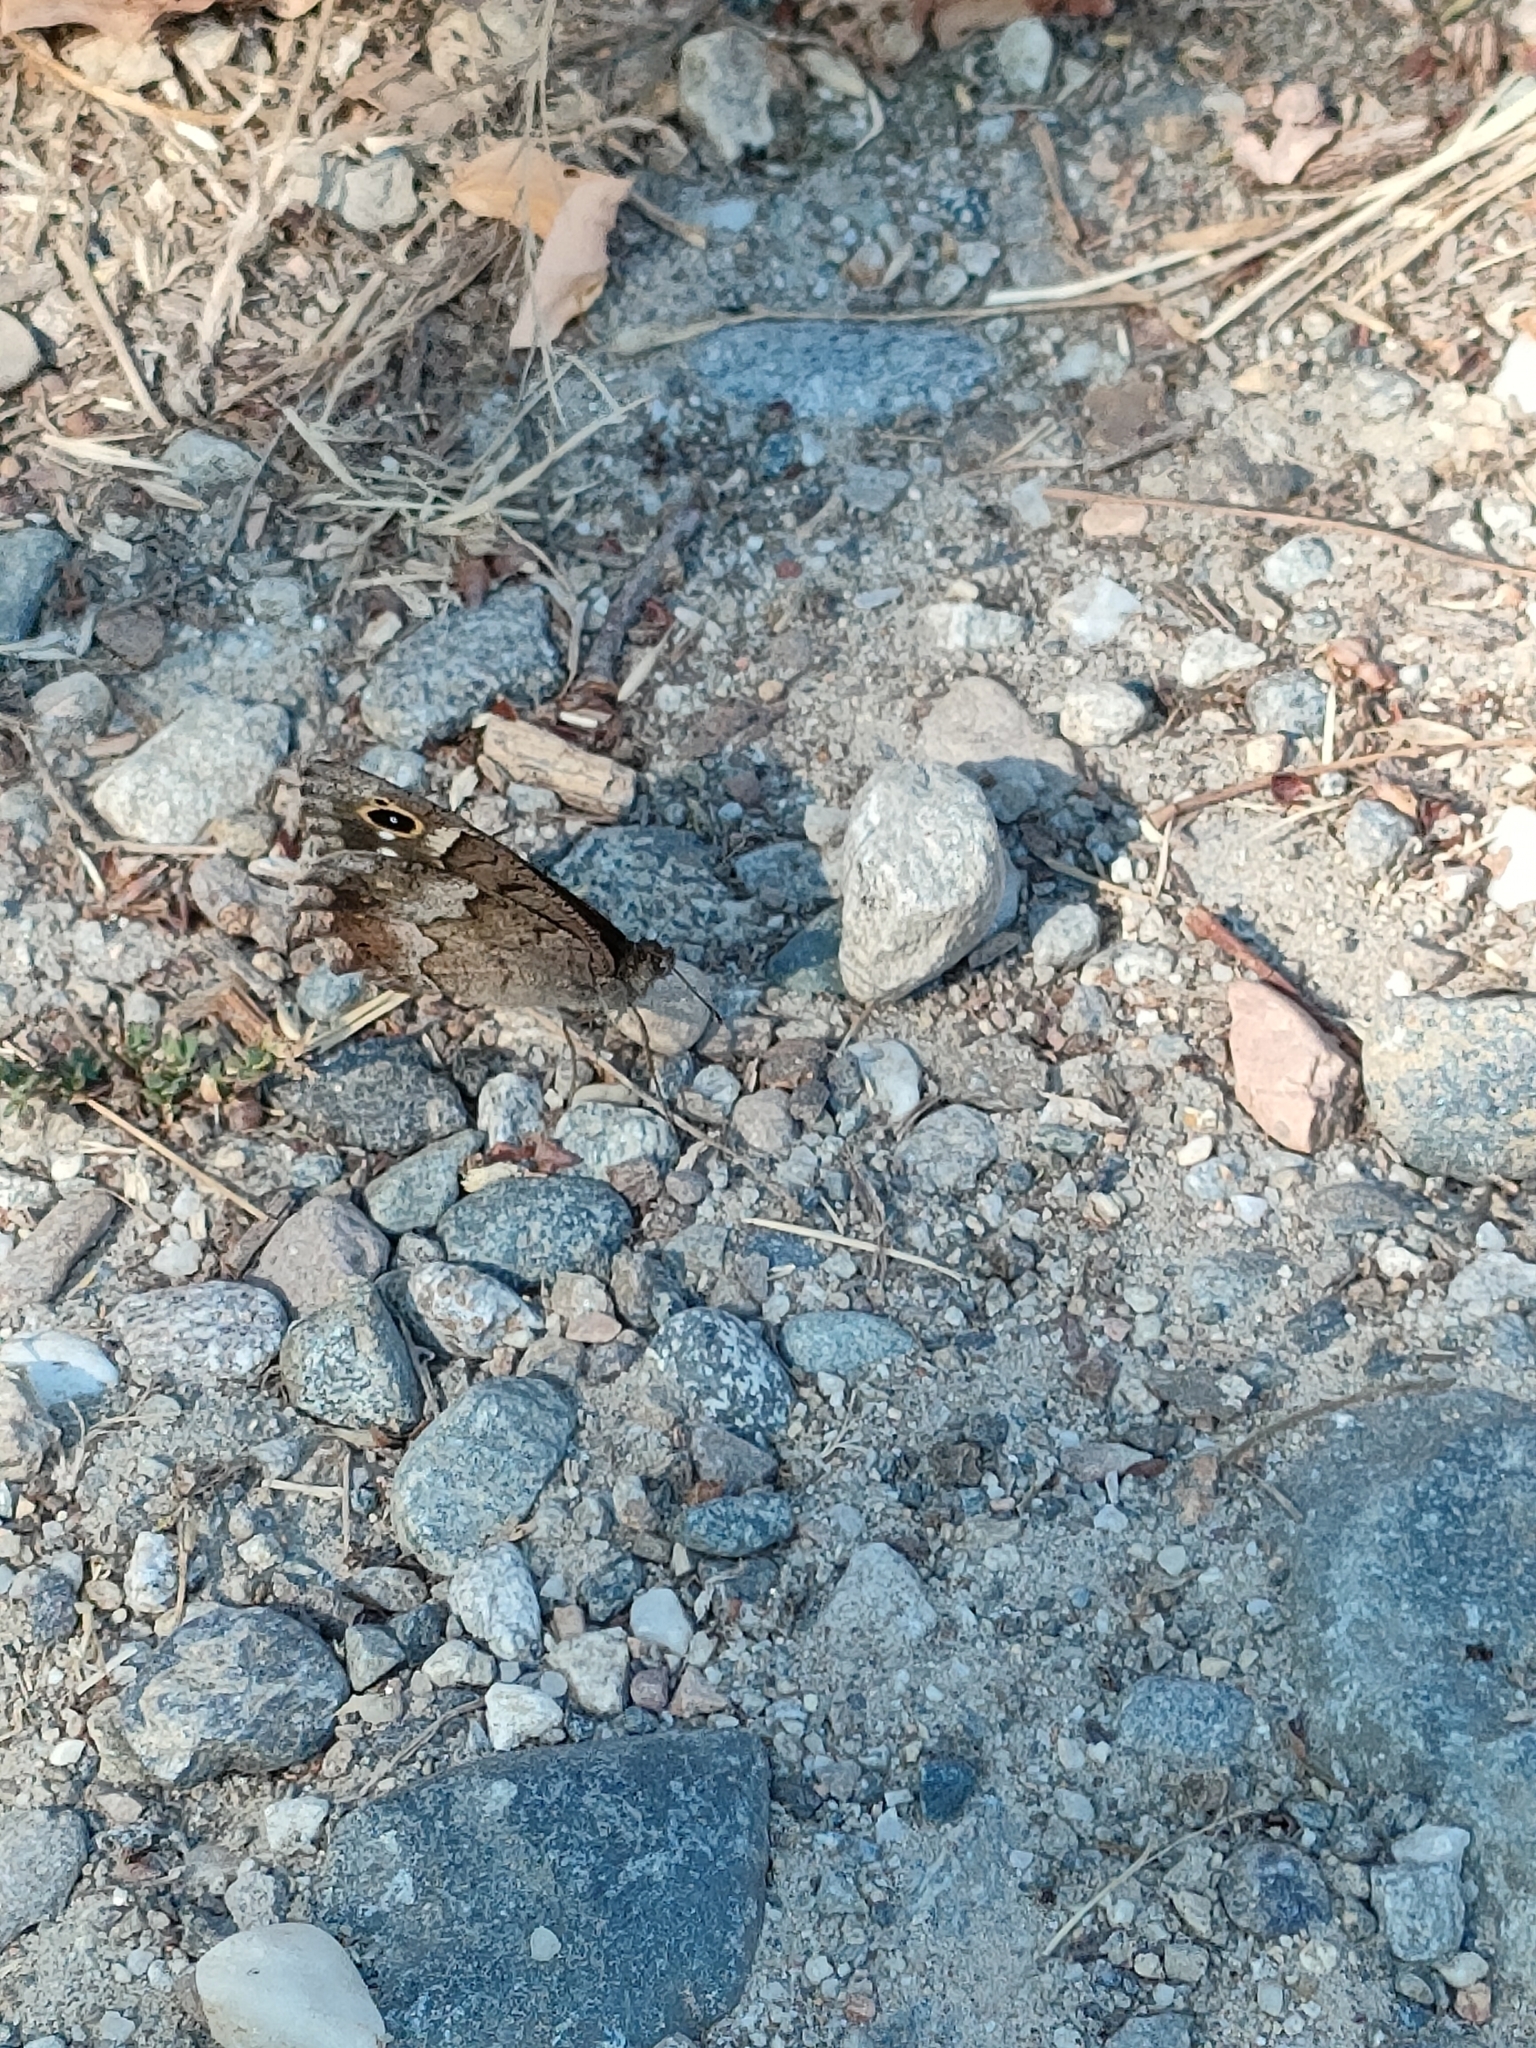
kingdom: Animalia
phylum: Arthropoda
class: Insecta
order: Lepidoptera
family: Nymphalidae
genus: Hipparchia
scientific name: Hipparchia statilinus
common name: Tree grayling
